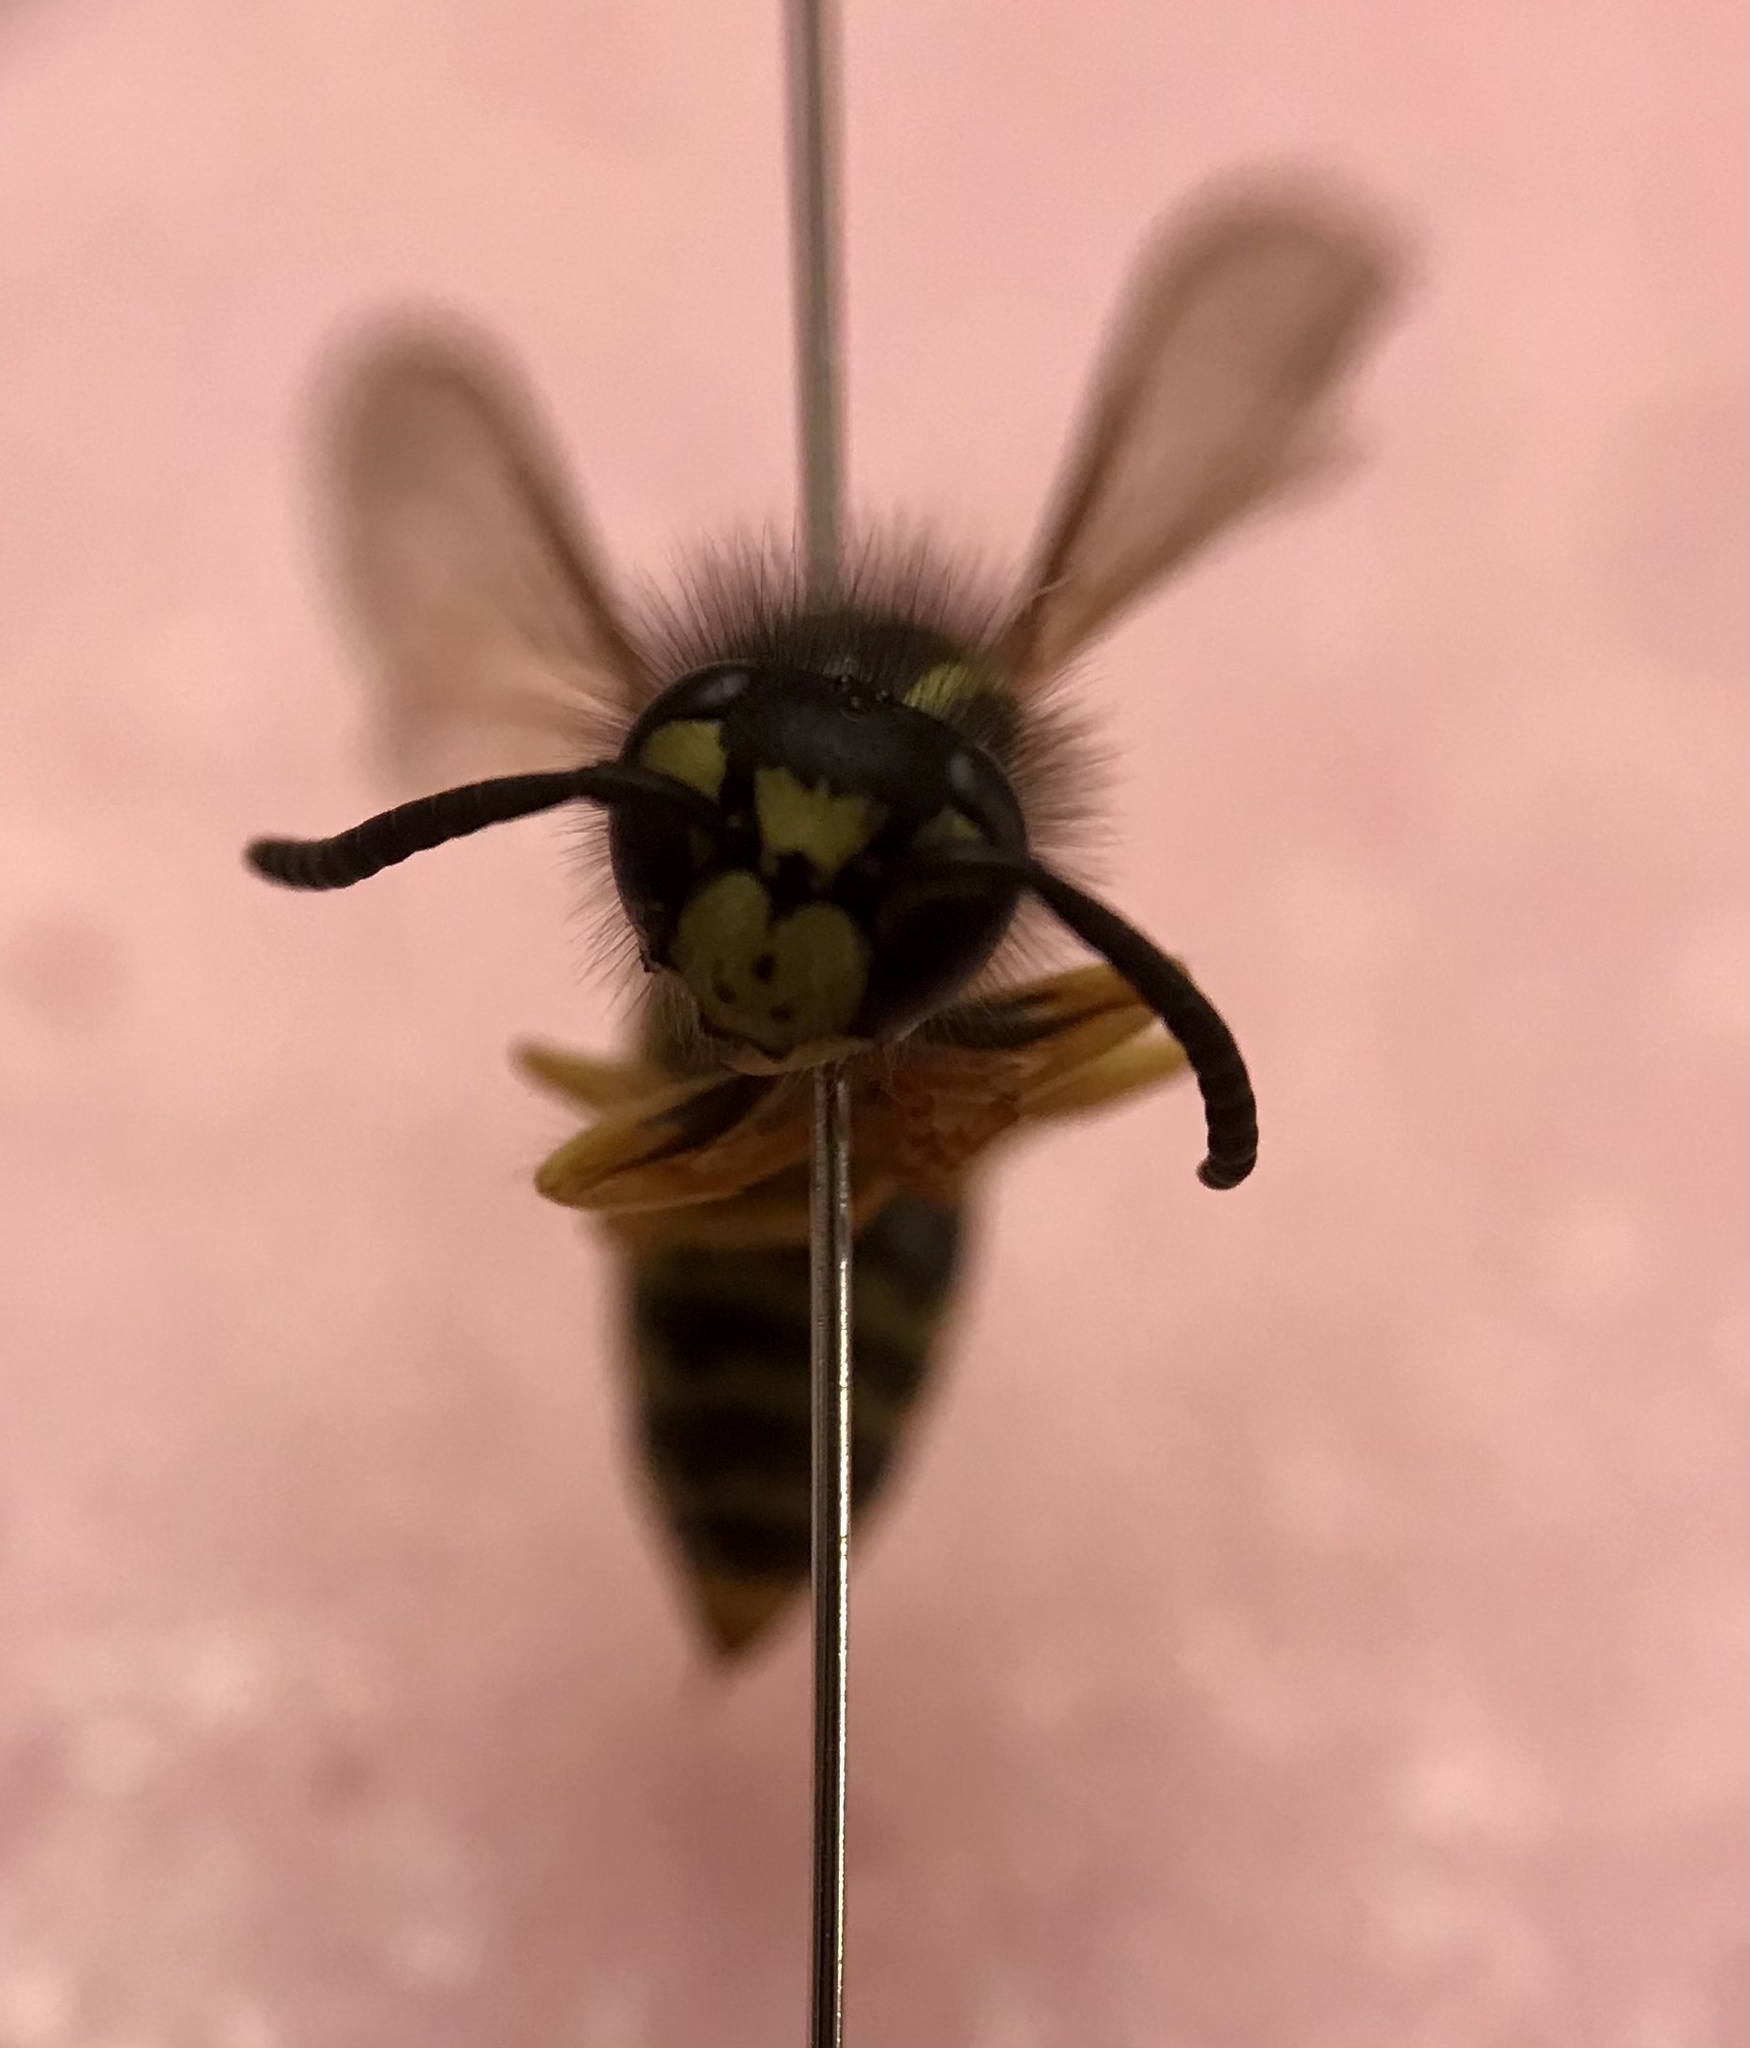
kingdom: Animalia
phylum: Arthropoda
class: Insecta
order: Hymenoptera
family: Vespidae
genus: Vespula
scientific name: Vespula maculifrons
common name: Eastern yellowjacket
